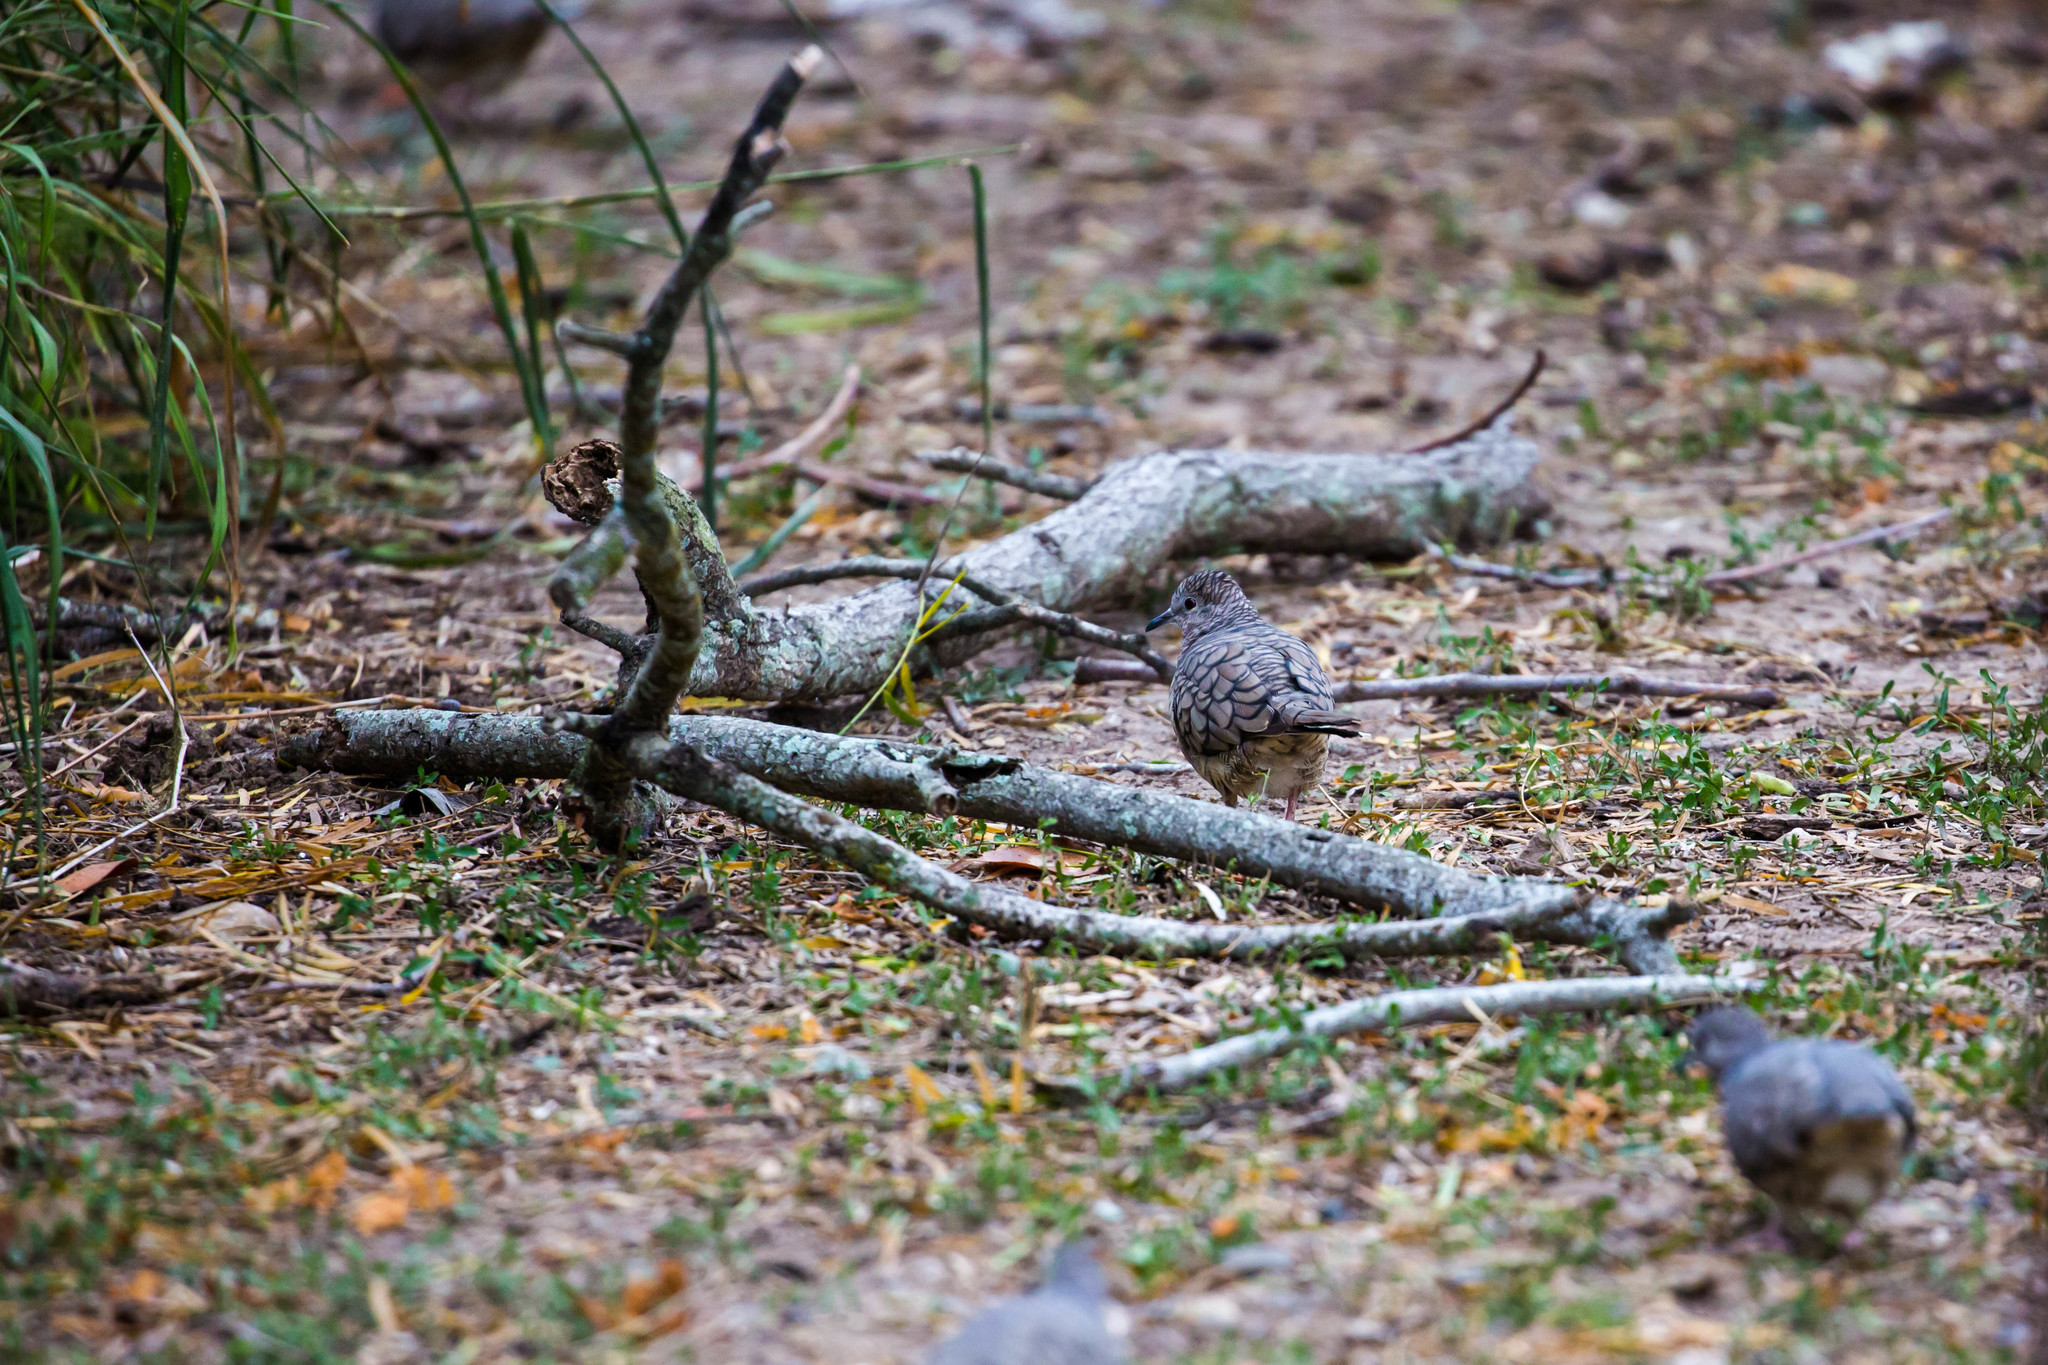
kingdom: Animalia
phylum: Chordata
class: Aves
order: Columbiformes
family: Columbidae
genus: Columbina
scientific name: Columbina inca
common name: Inca dove
